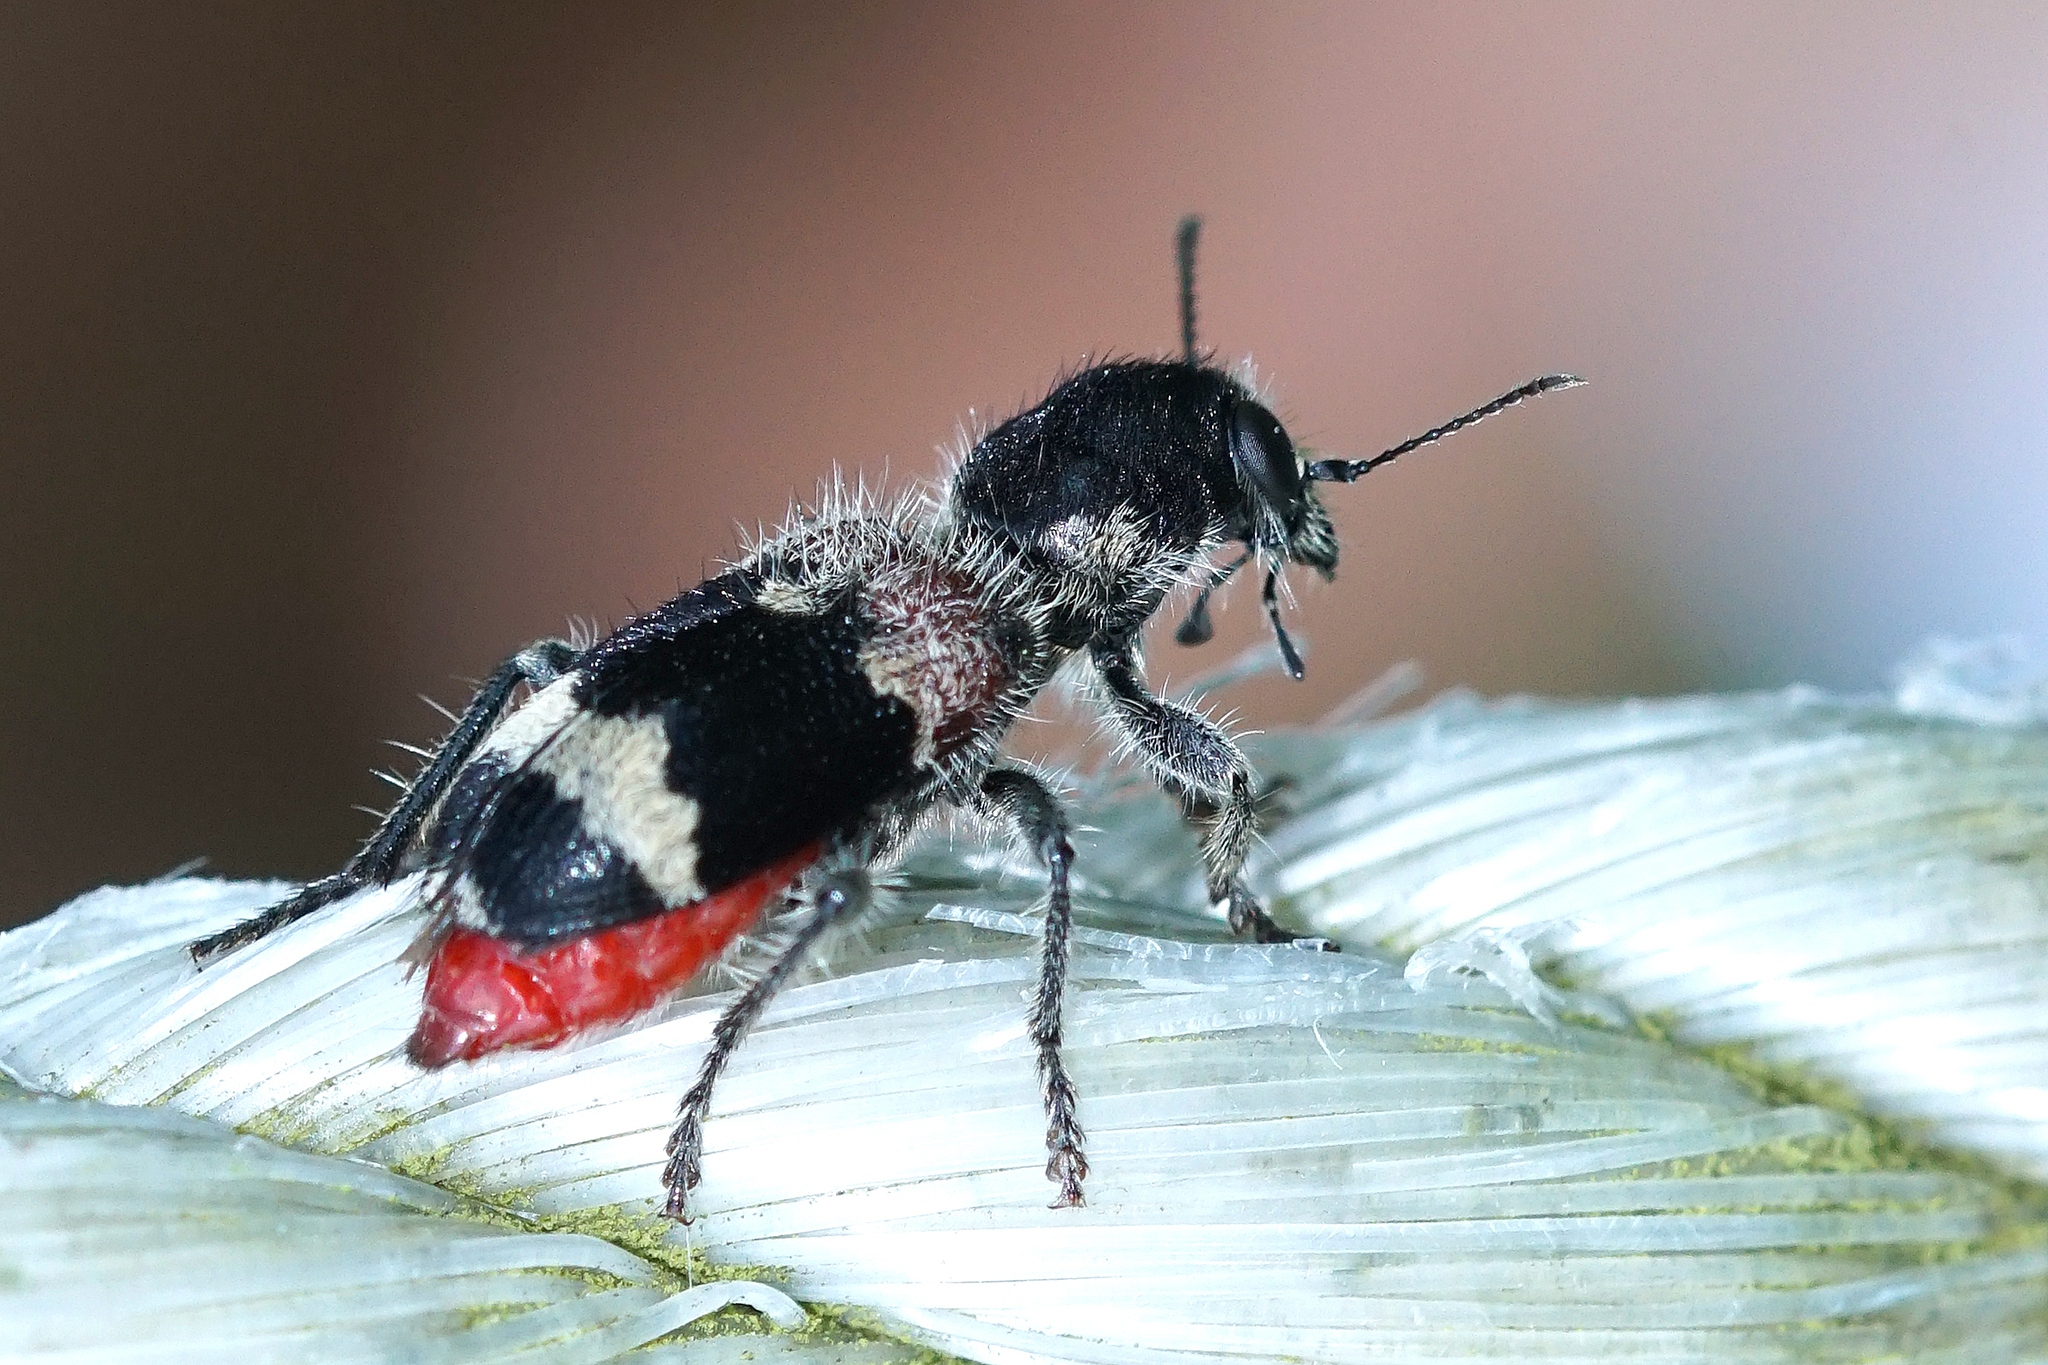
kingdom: Animalia
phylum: Arthropoda
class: Insecta
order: Coleoptera
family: Cleridae
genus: Clerus
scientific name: Clerus mutillarius
